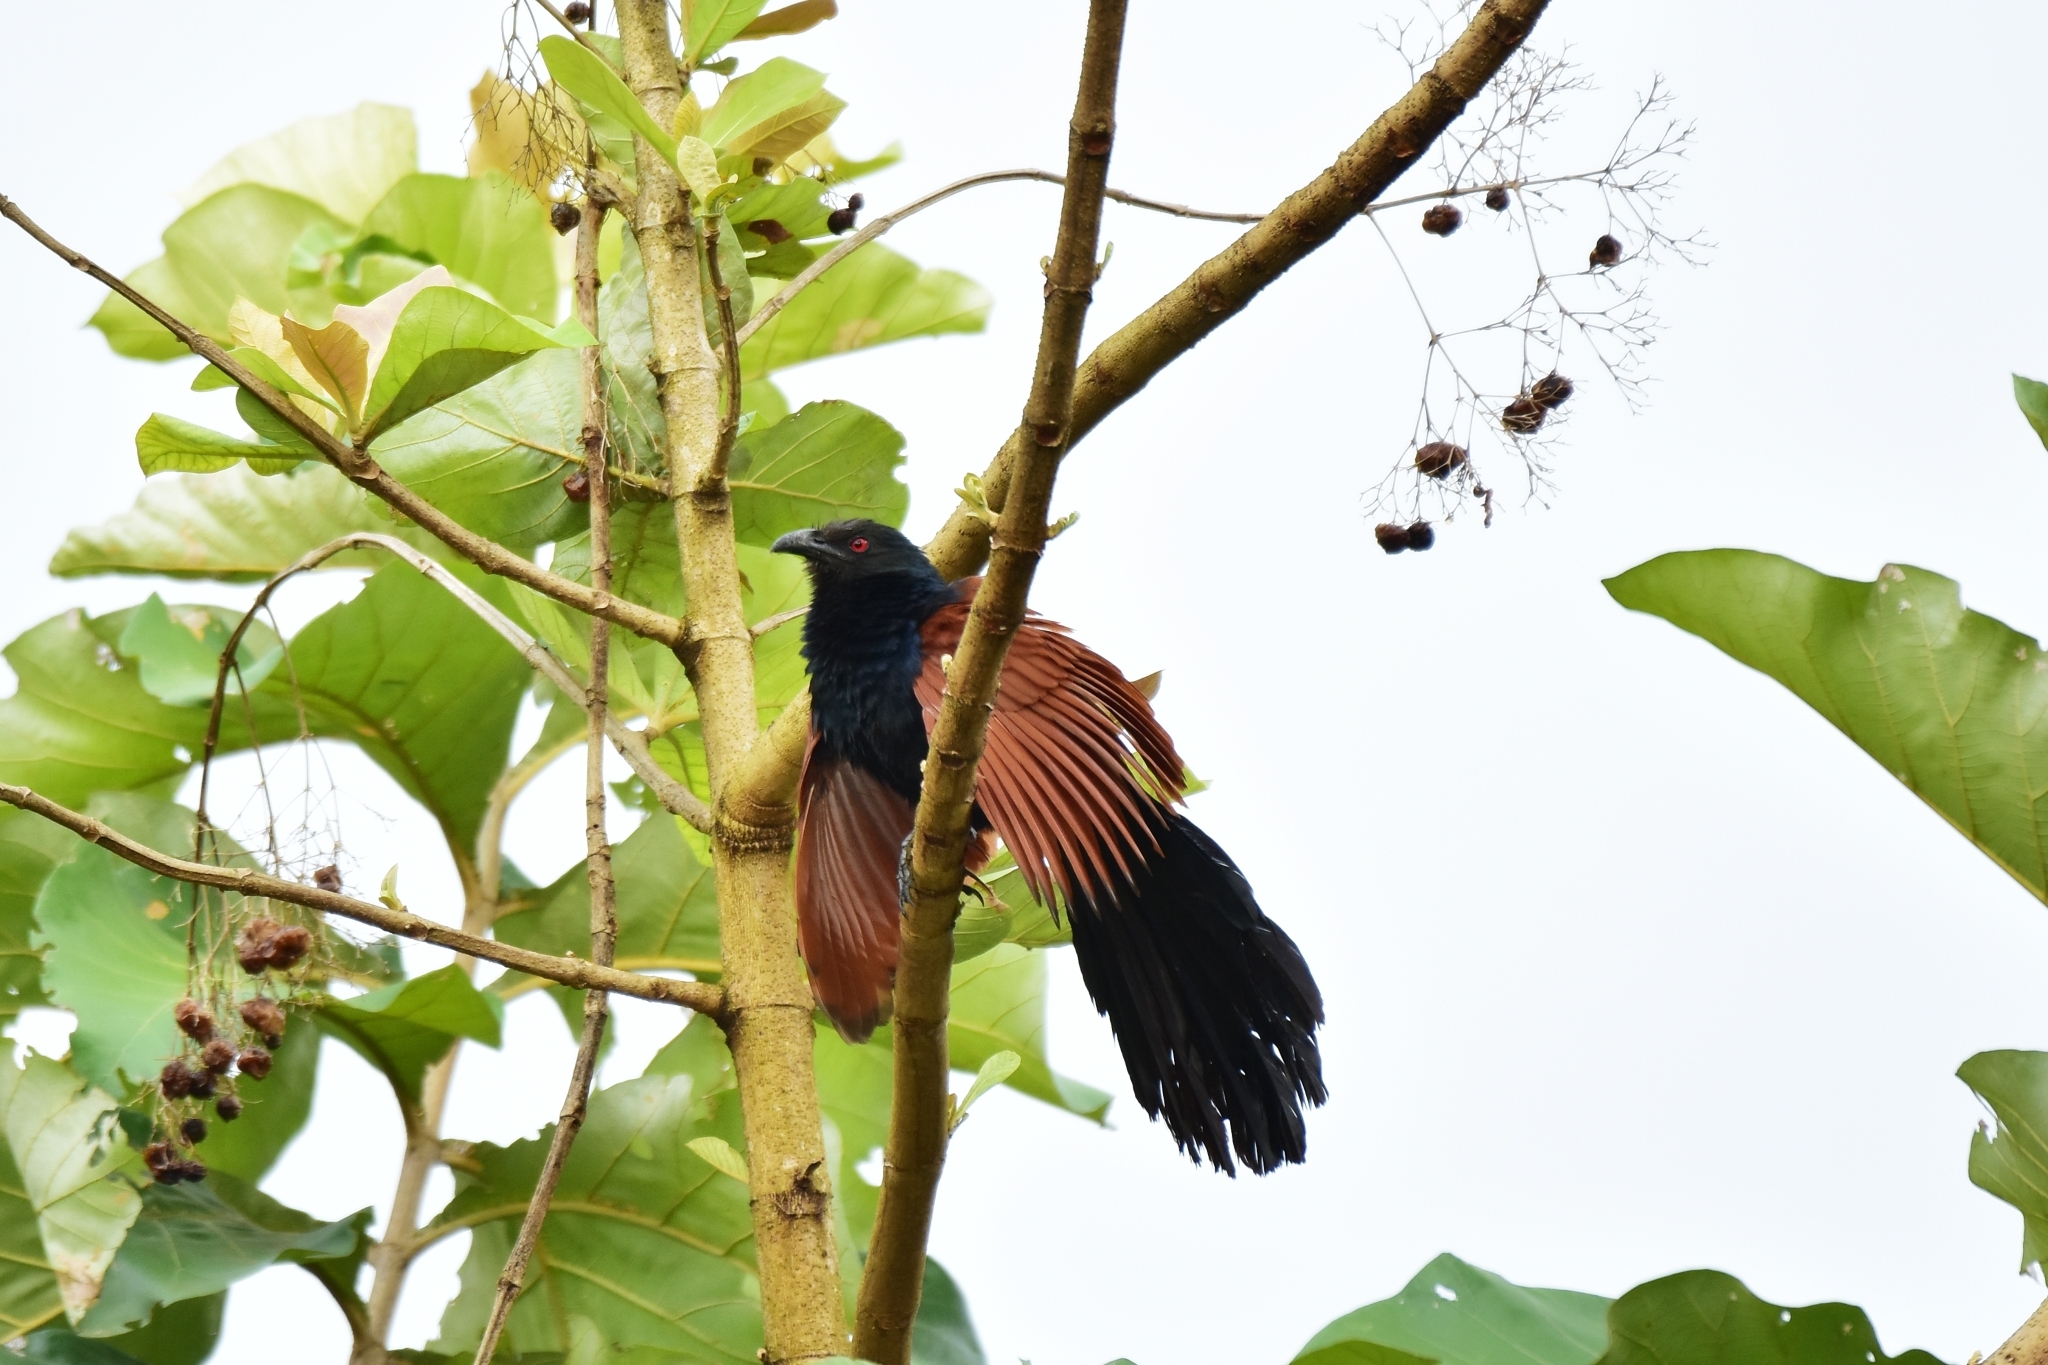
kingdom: Animalia
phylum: Chordata
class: Aves
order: Cuculiformes
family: Cuculidae
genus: Centropus
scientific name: Centropus sinensis
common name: Greater coucal
